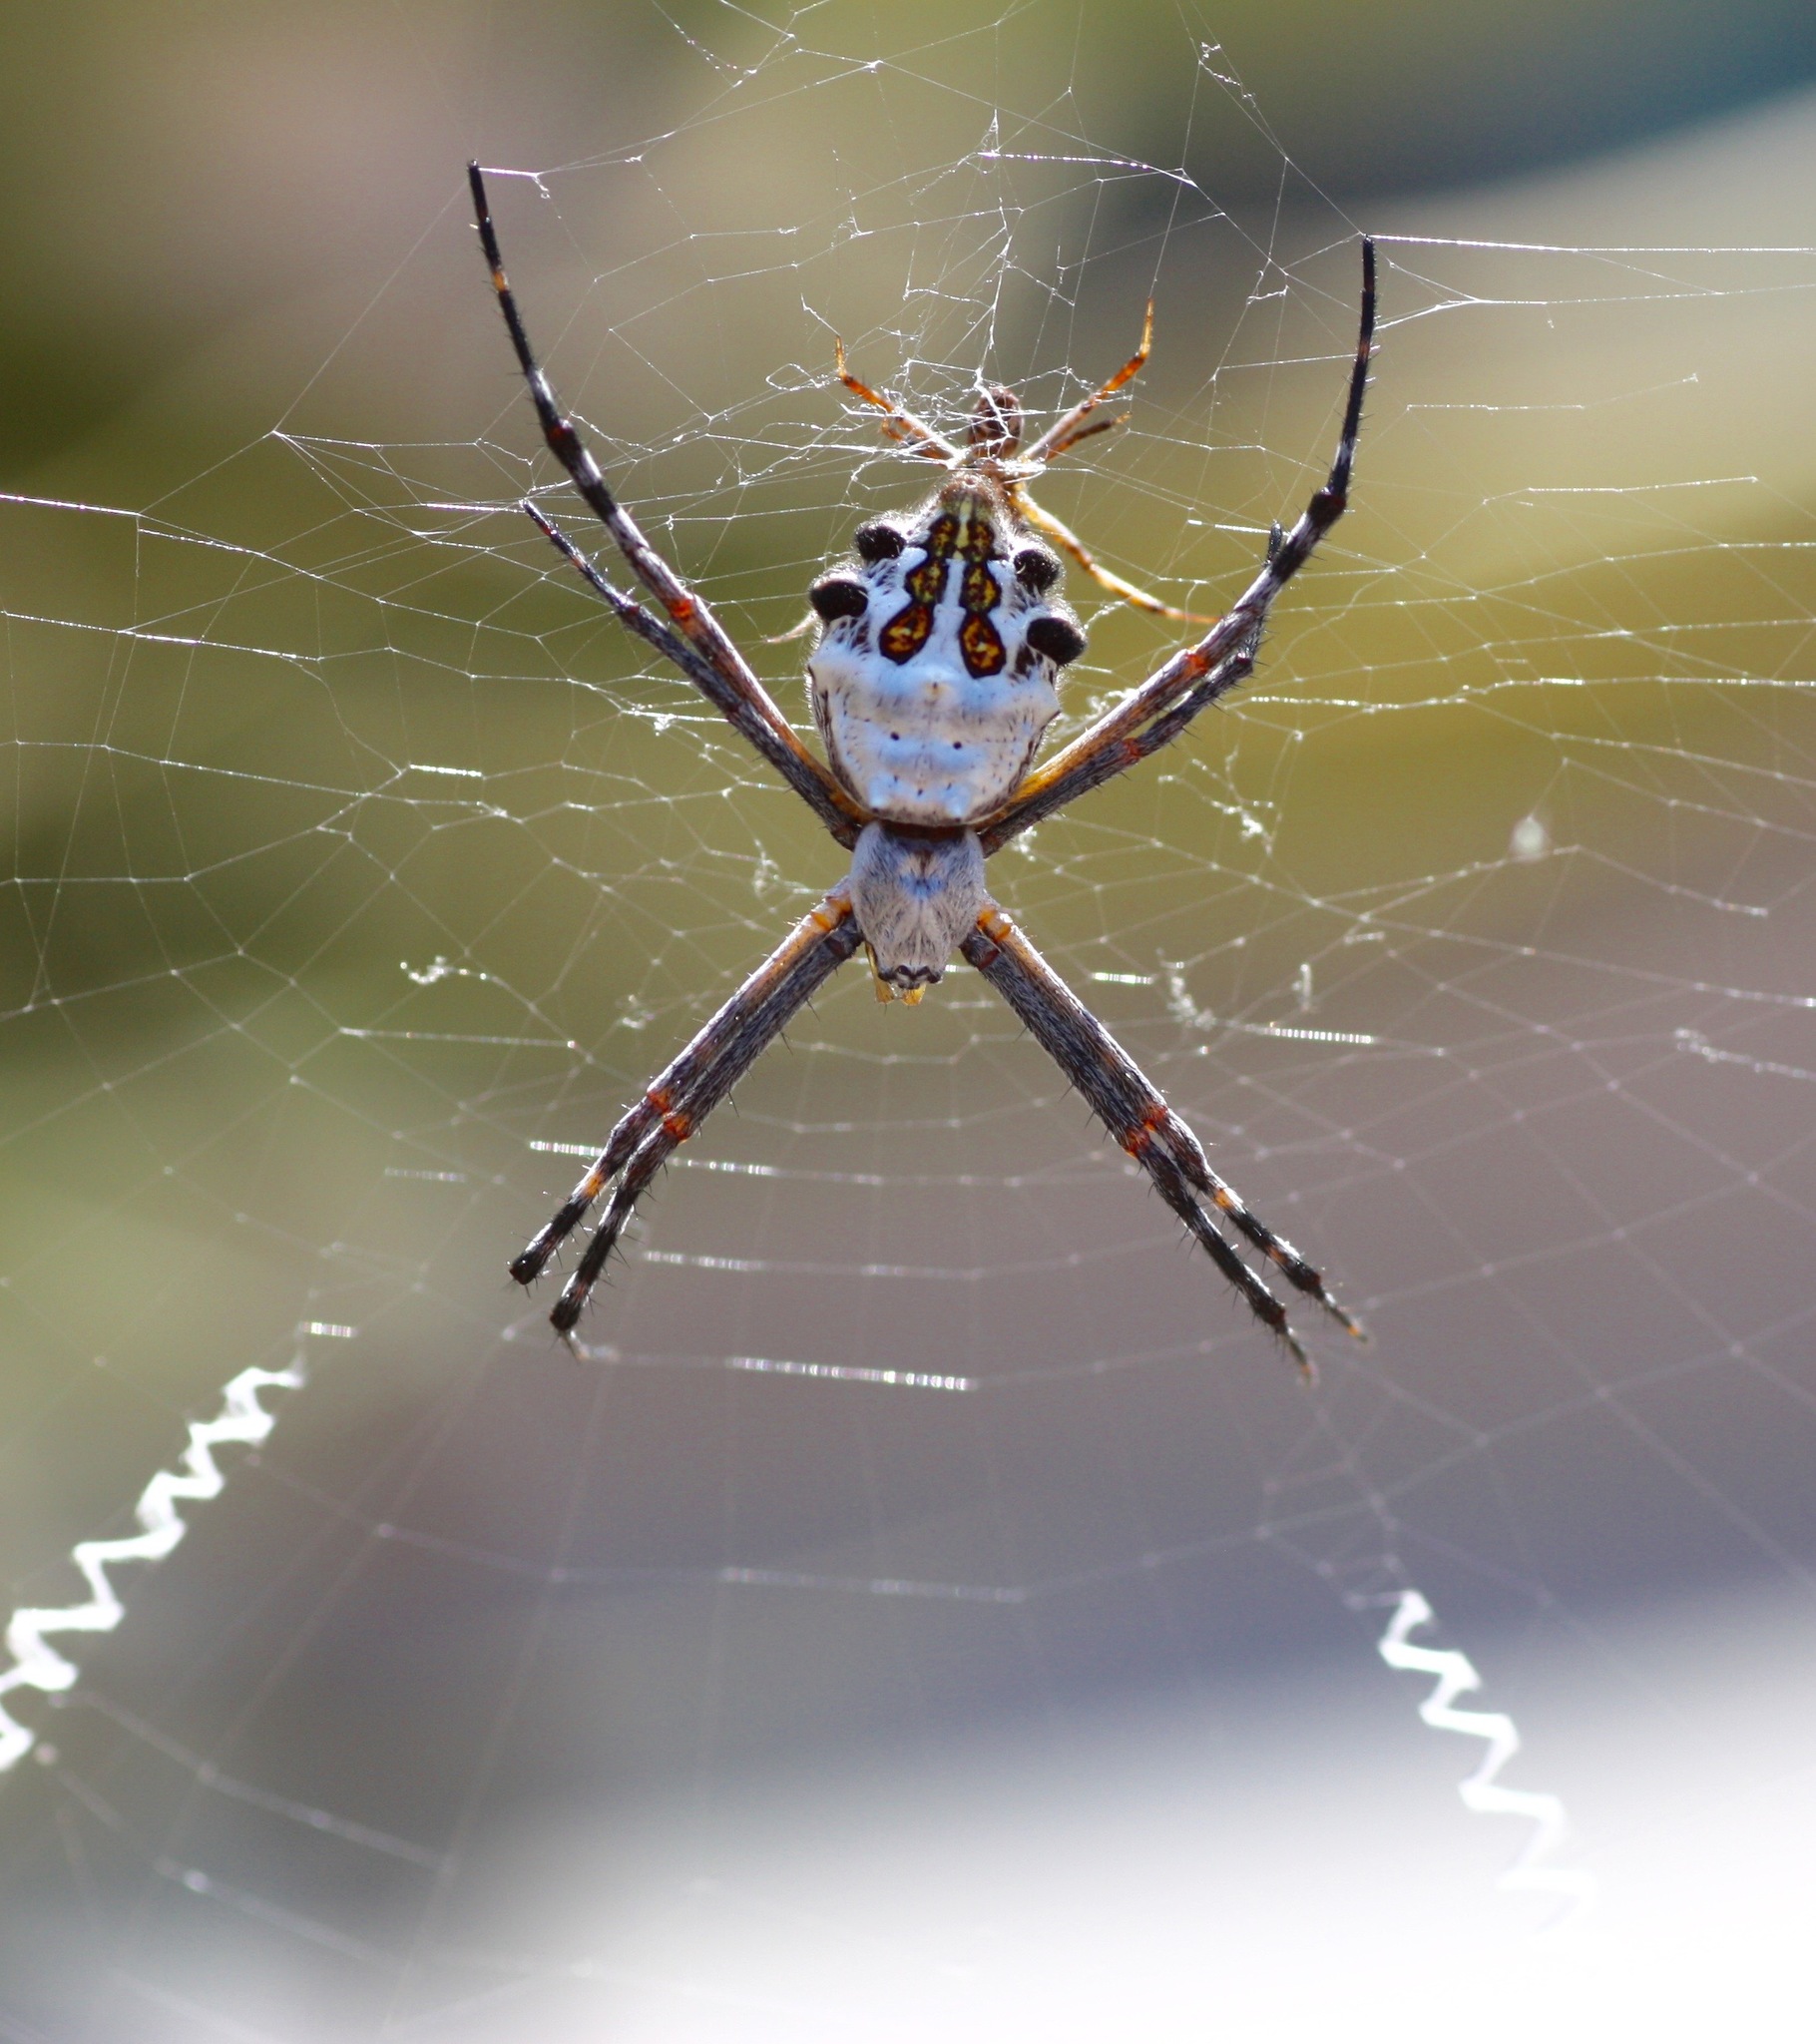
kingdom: Animalia
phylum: Arthropoda
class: Arachnida
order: Araneae
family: Araneidae
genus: Argiope
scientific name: Argiope argentata
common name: Orb weavers
